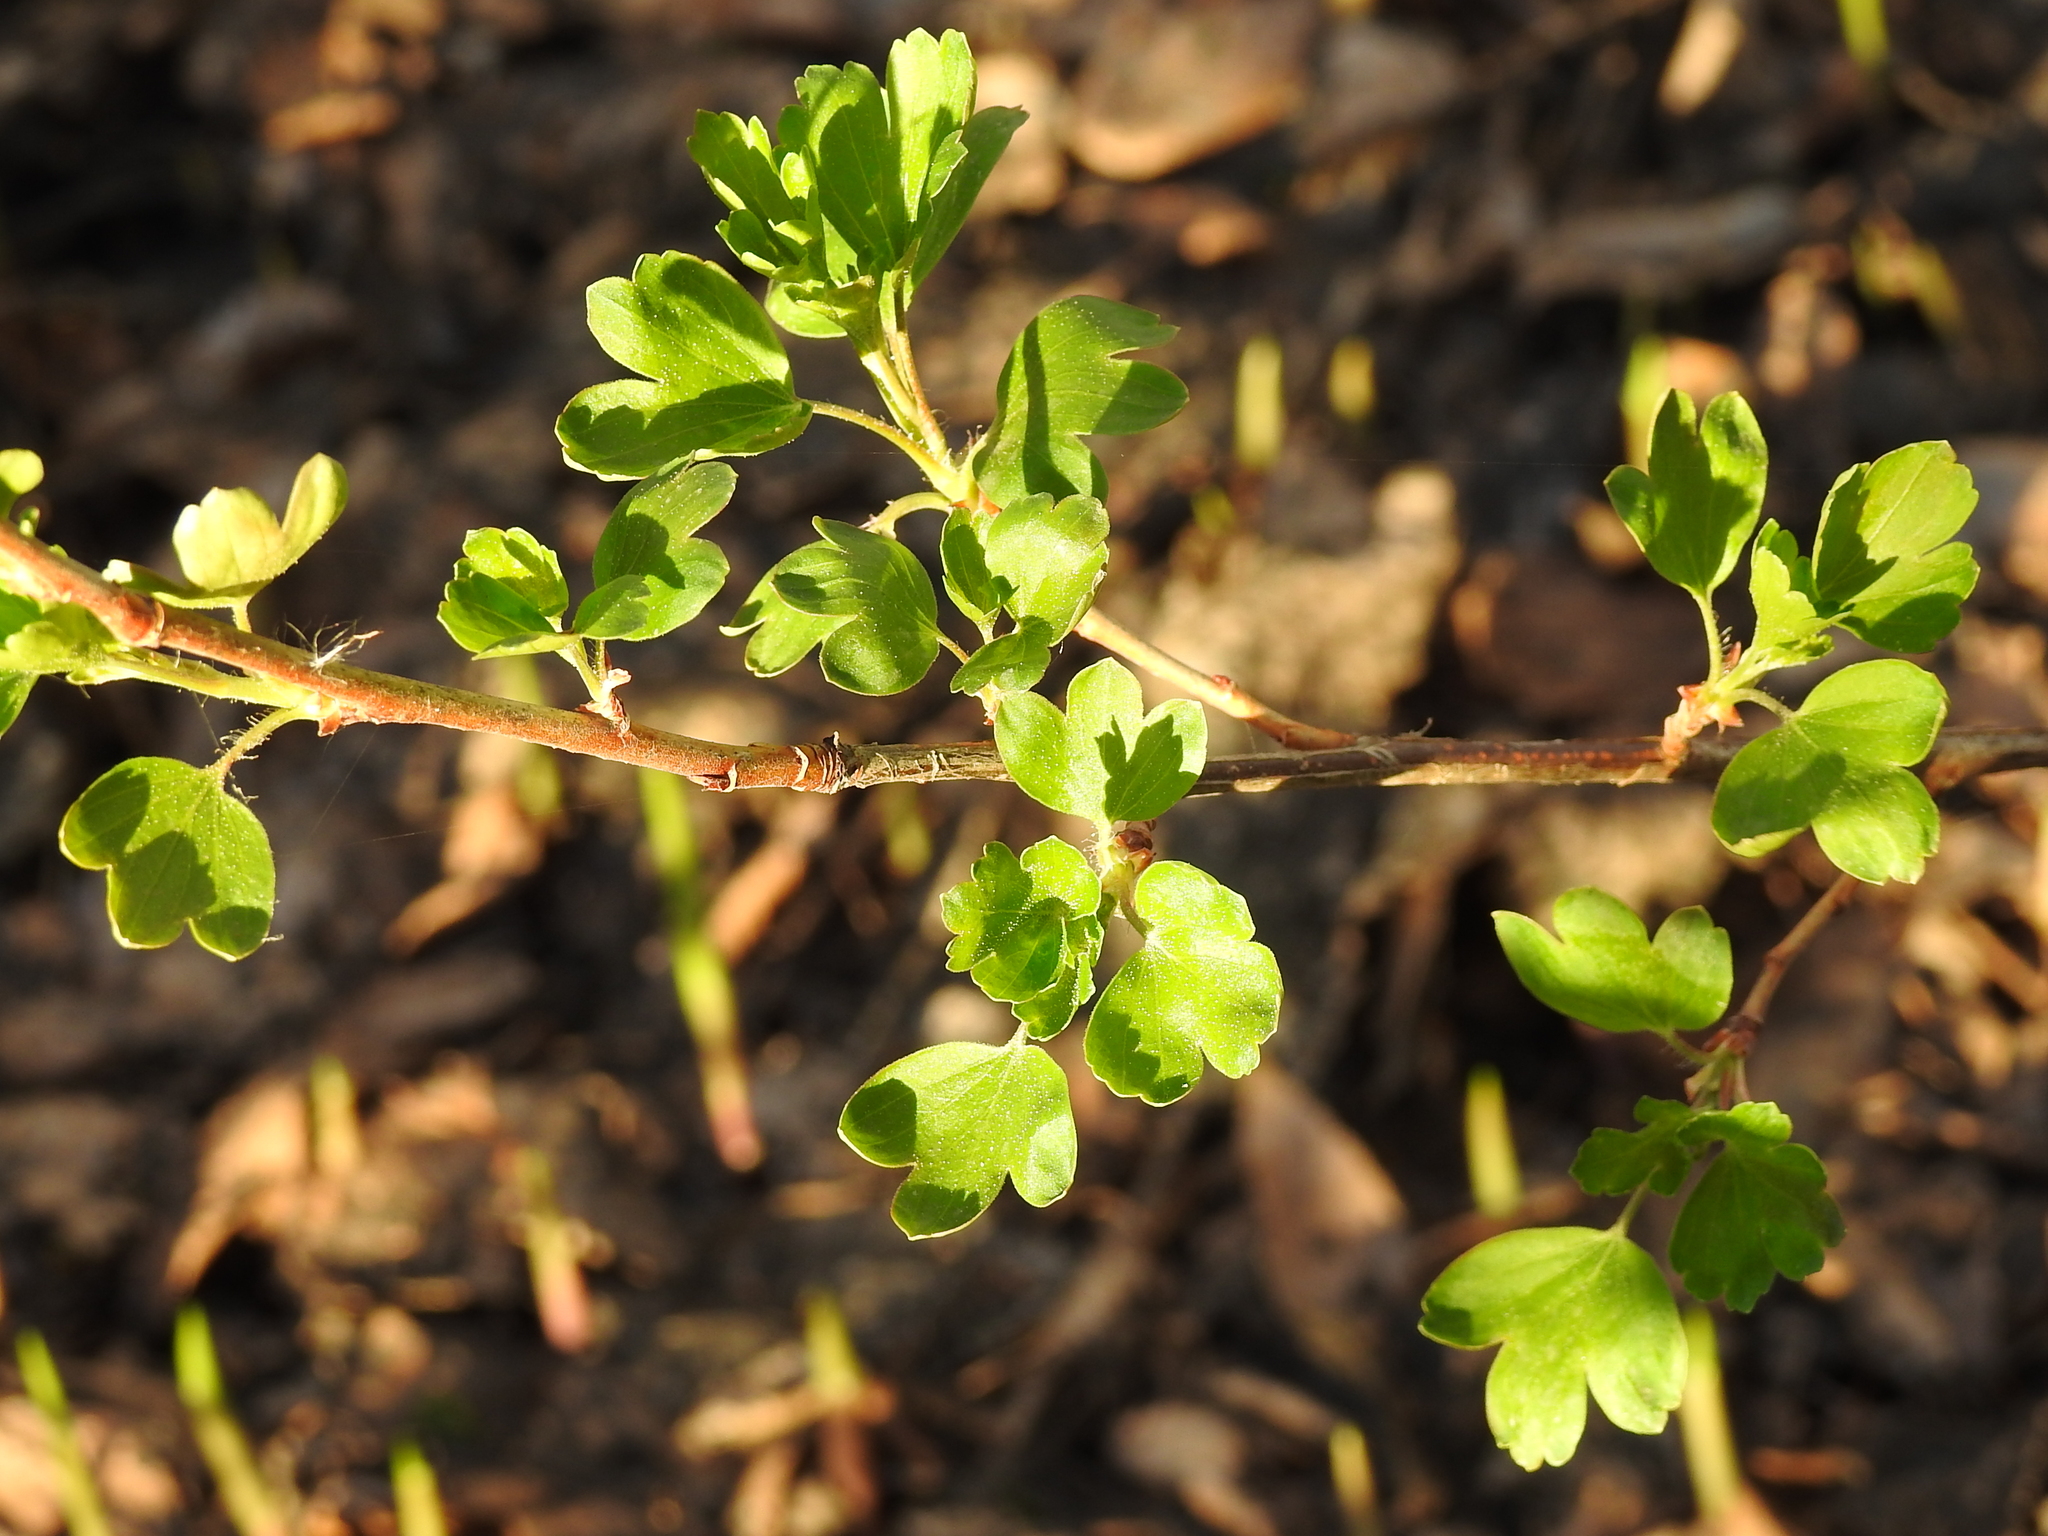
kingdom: Plantae
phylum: Tracheophyta
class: Magnoliopsida
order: Saxifragales
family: Grossulariaceae
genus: Ribes
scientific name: Ribes aureum
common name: Golden currant
